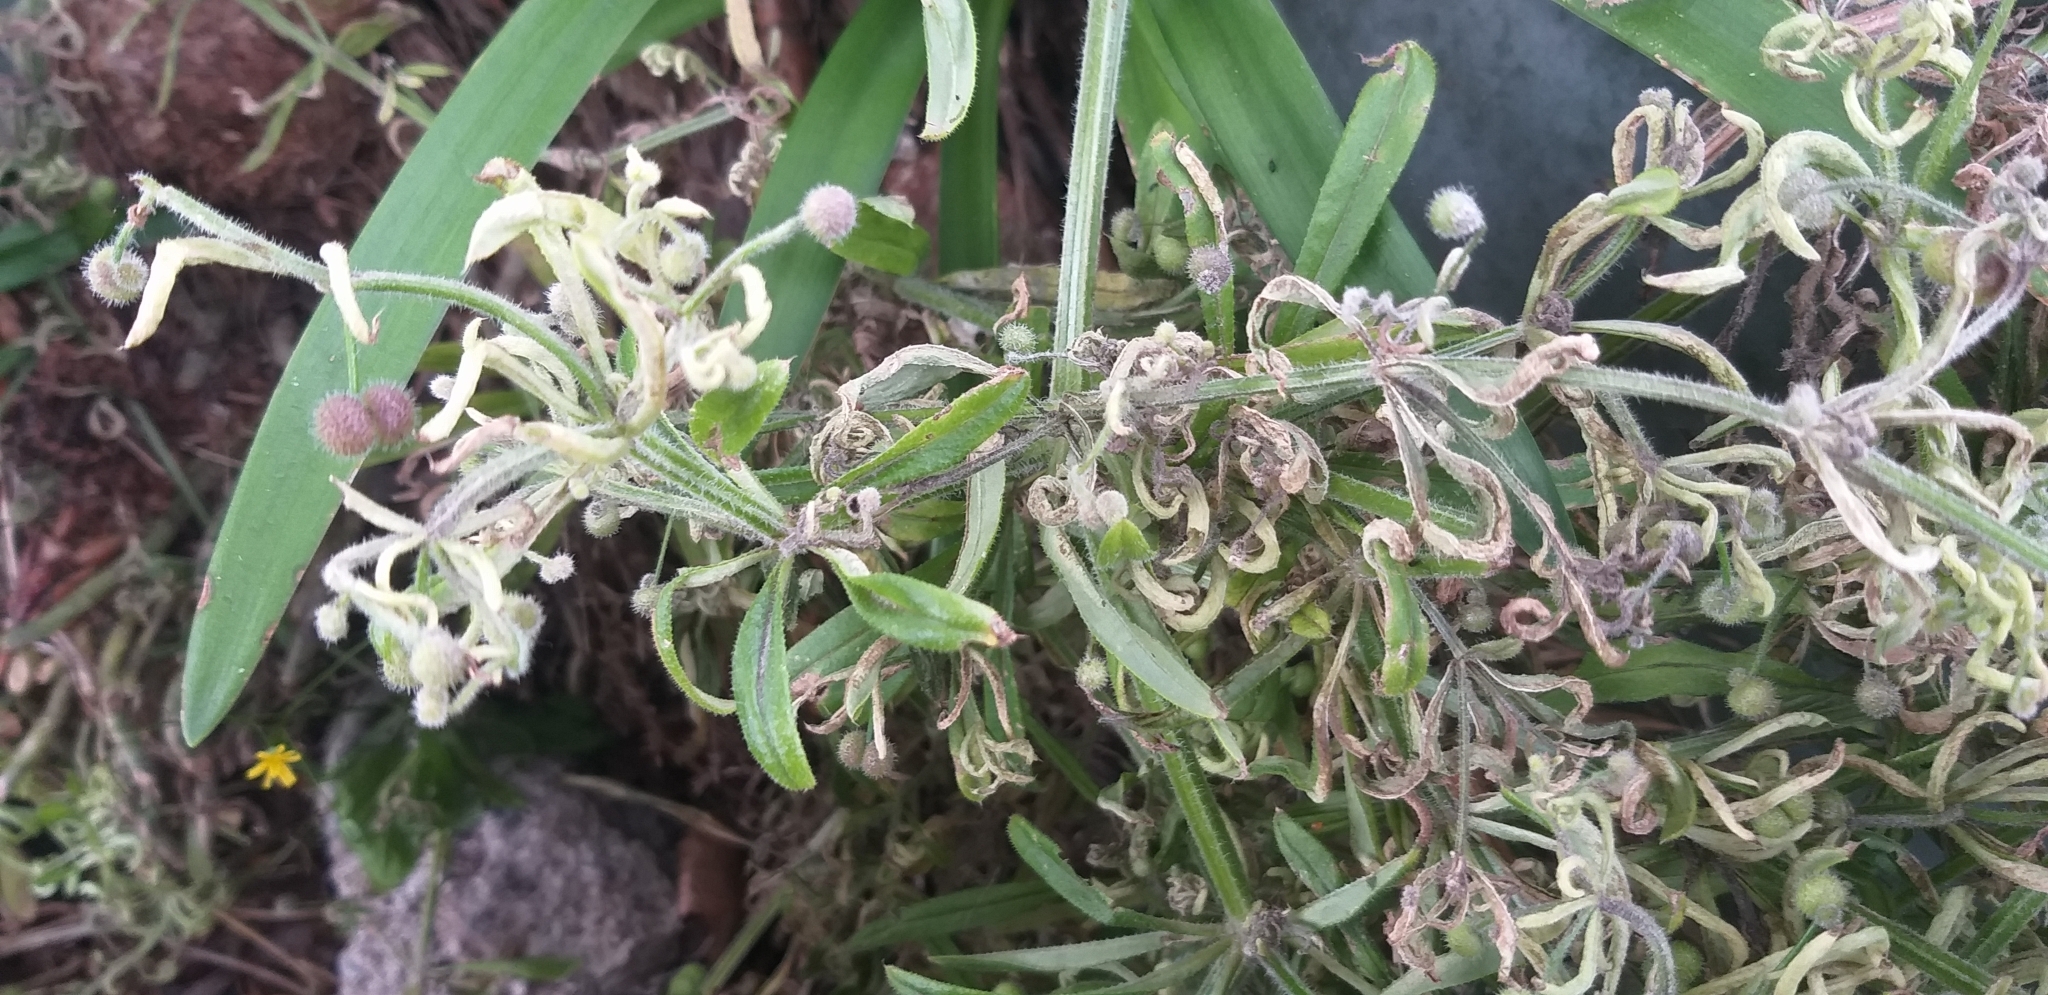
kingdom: Animalia
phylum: Arthropoda
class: Arachnida
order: Trombidiformes
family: Eriophyidae
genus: Cecidophyes
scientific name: Cecidophyes rouhollahi
